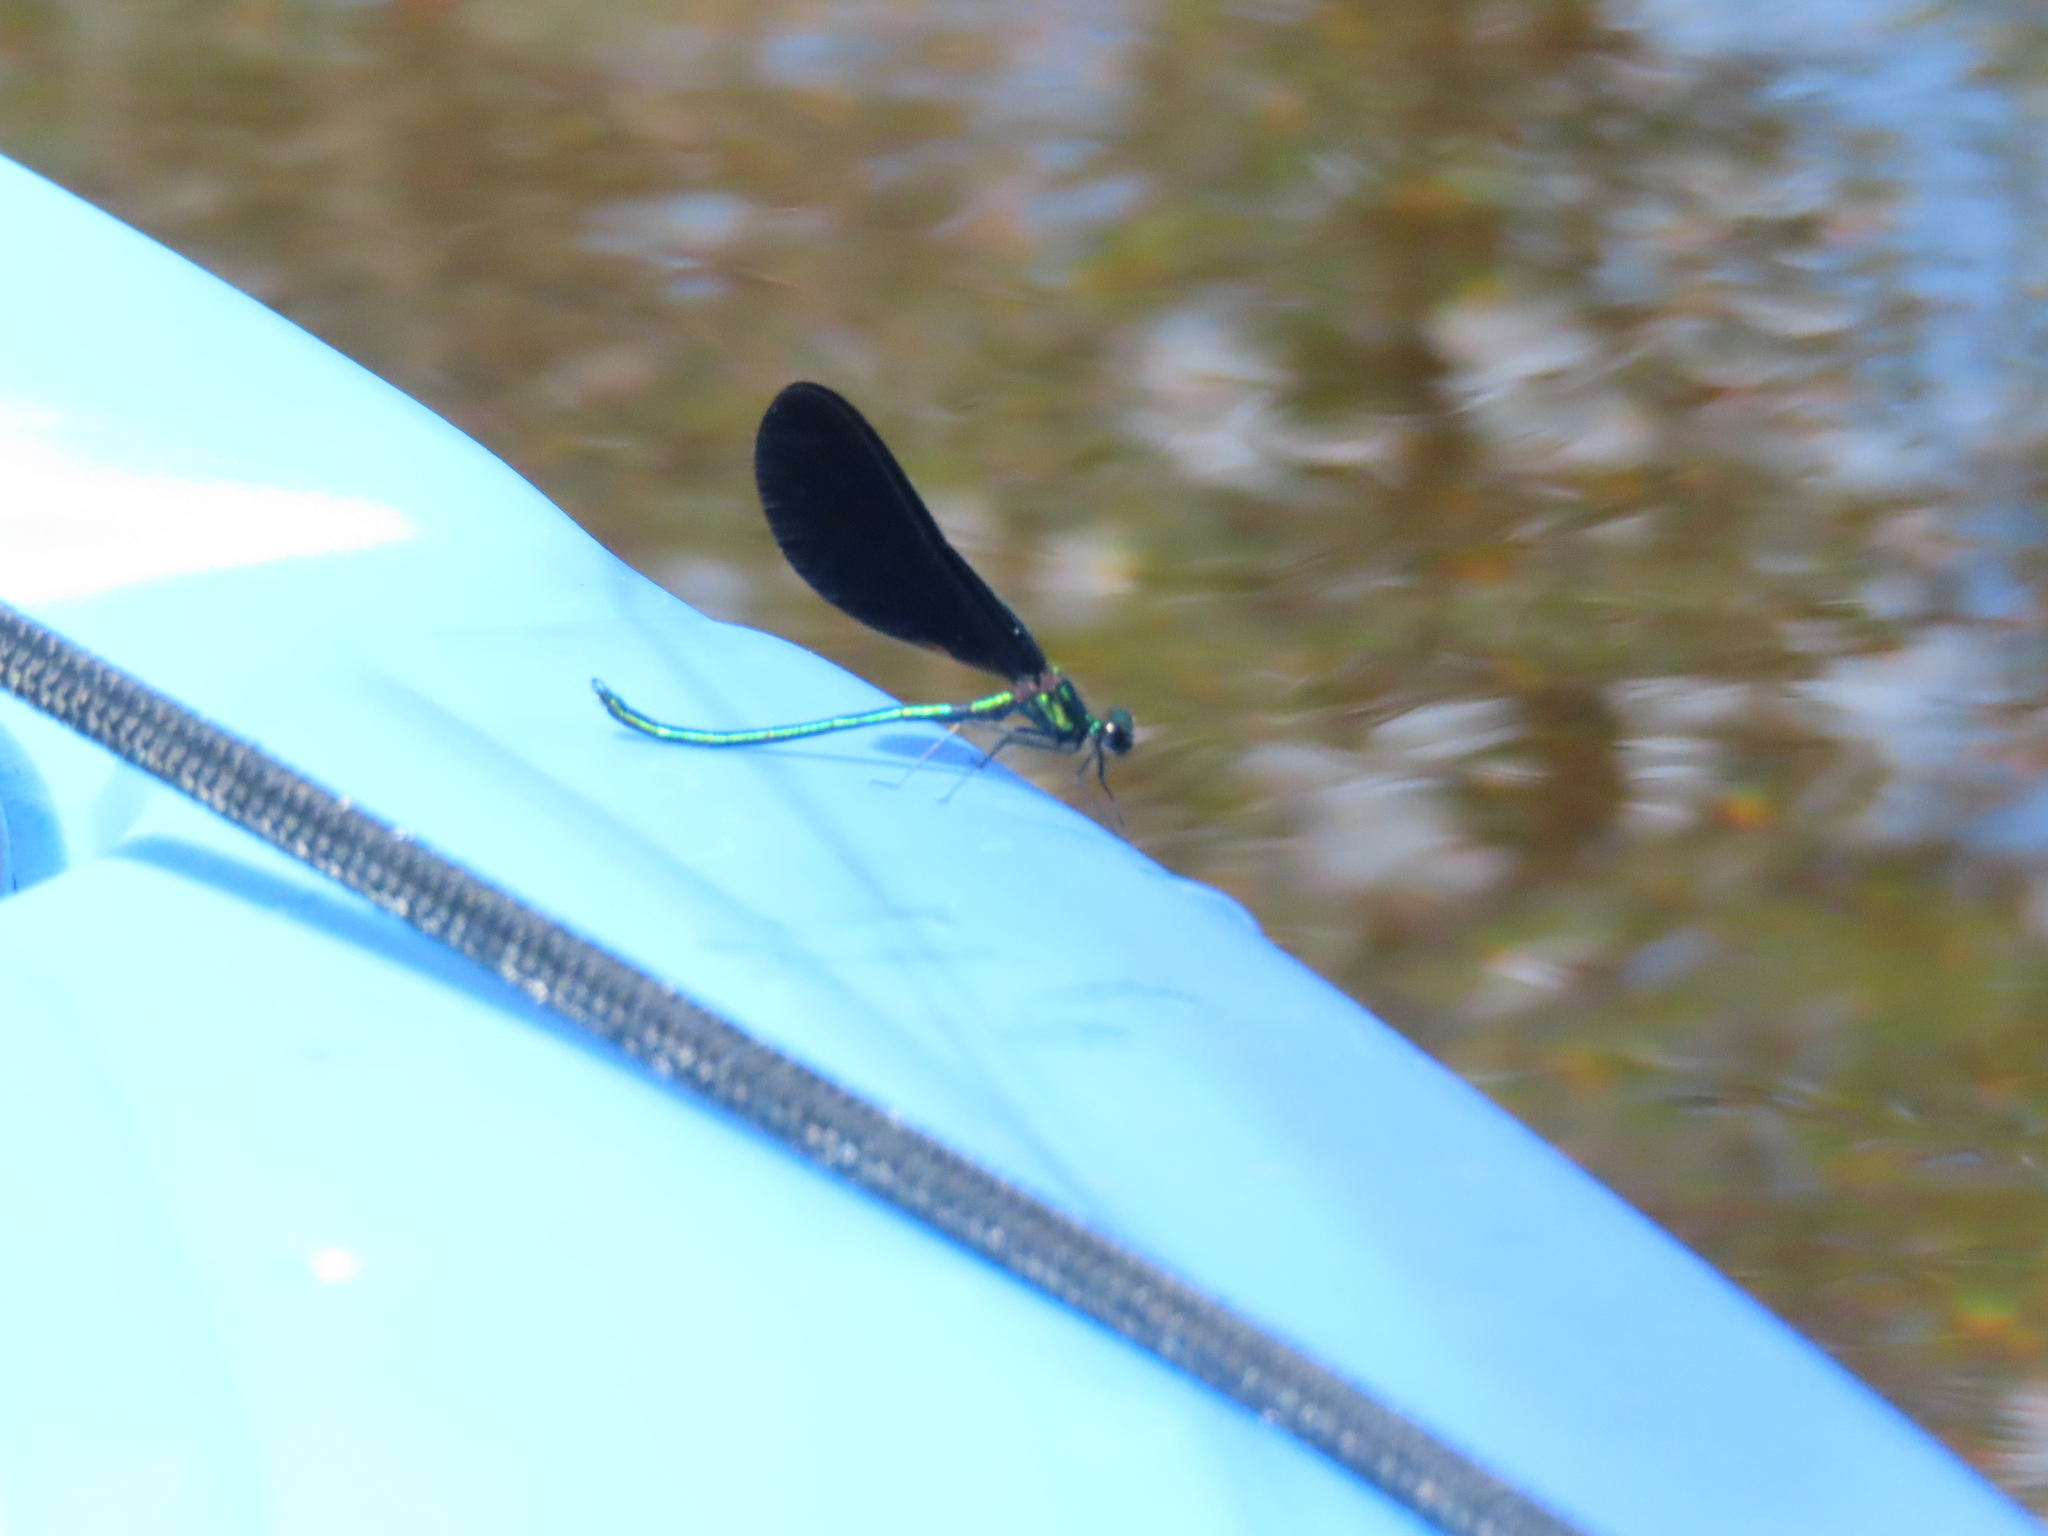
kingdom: Animalia
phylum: Arthropoda
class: Insecta
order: Odonata
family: Calopterygidae
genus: Calopteryx
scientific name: Calopteryx maculata
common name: Ebony jewelwing
